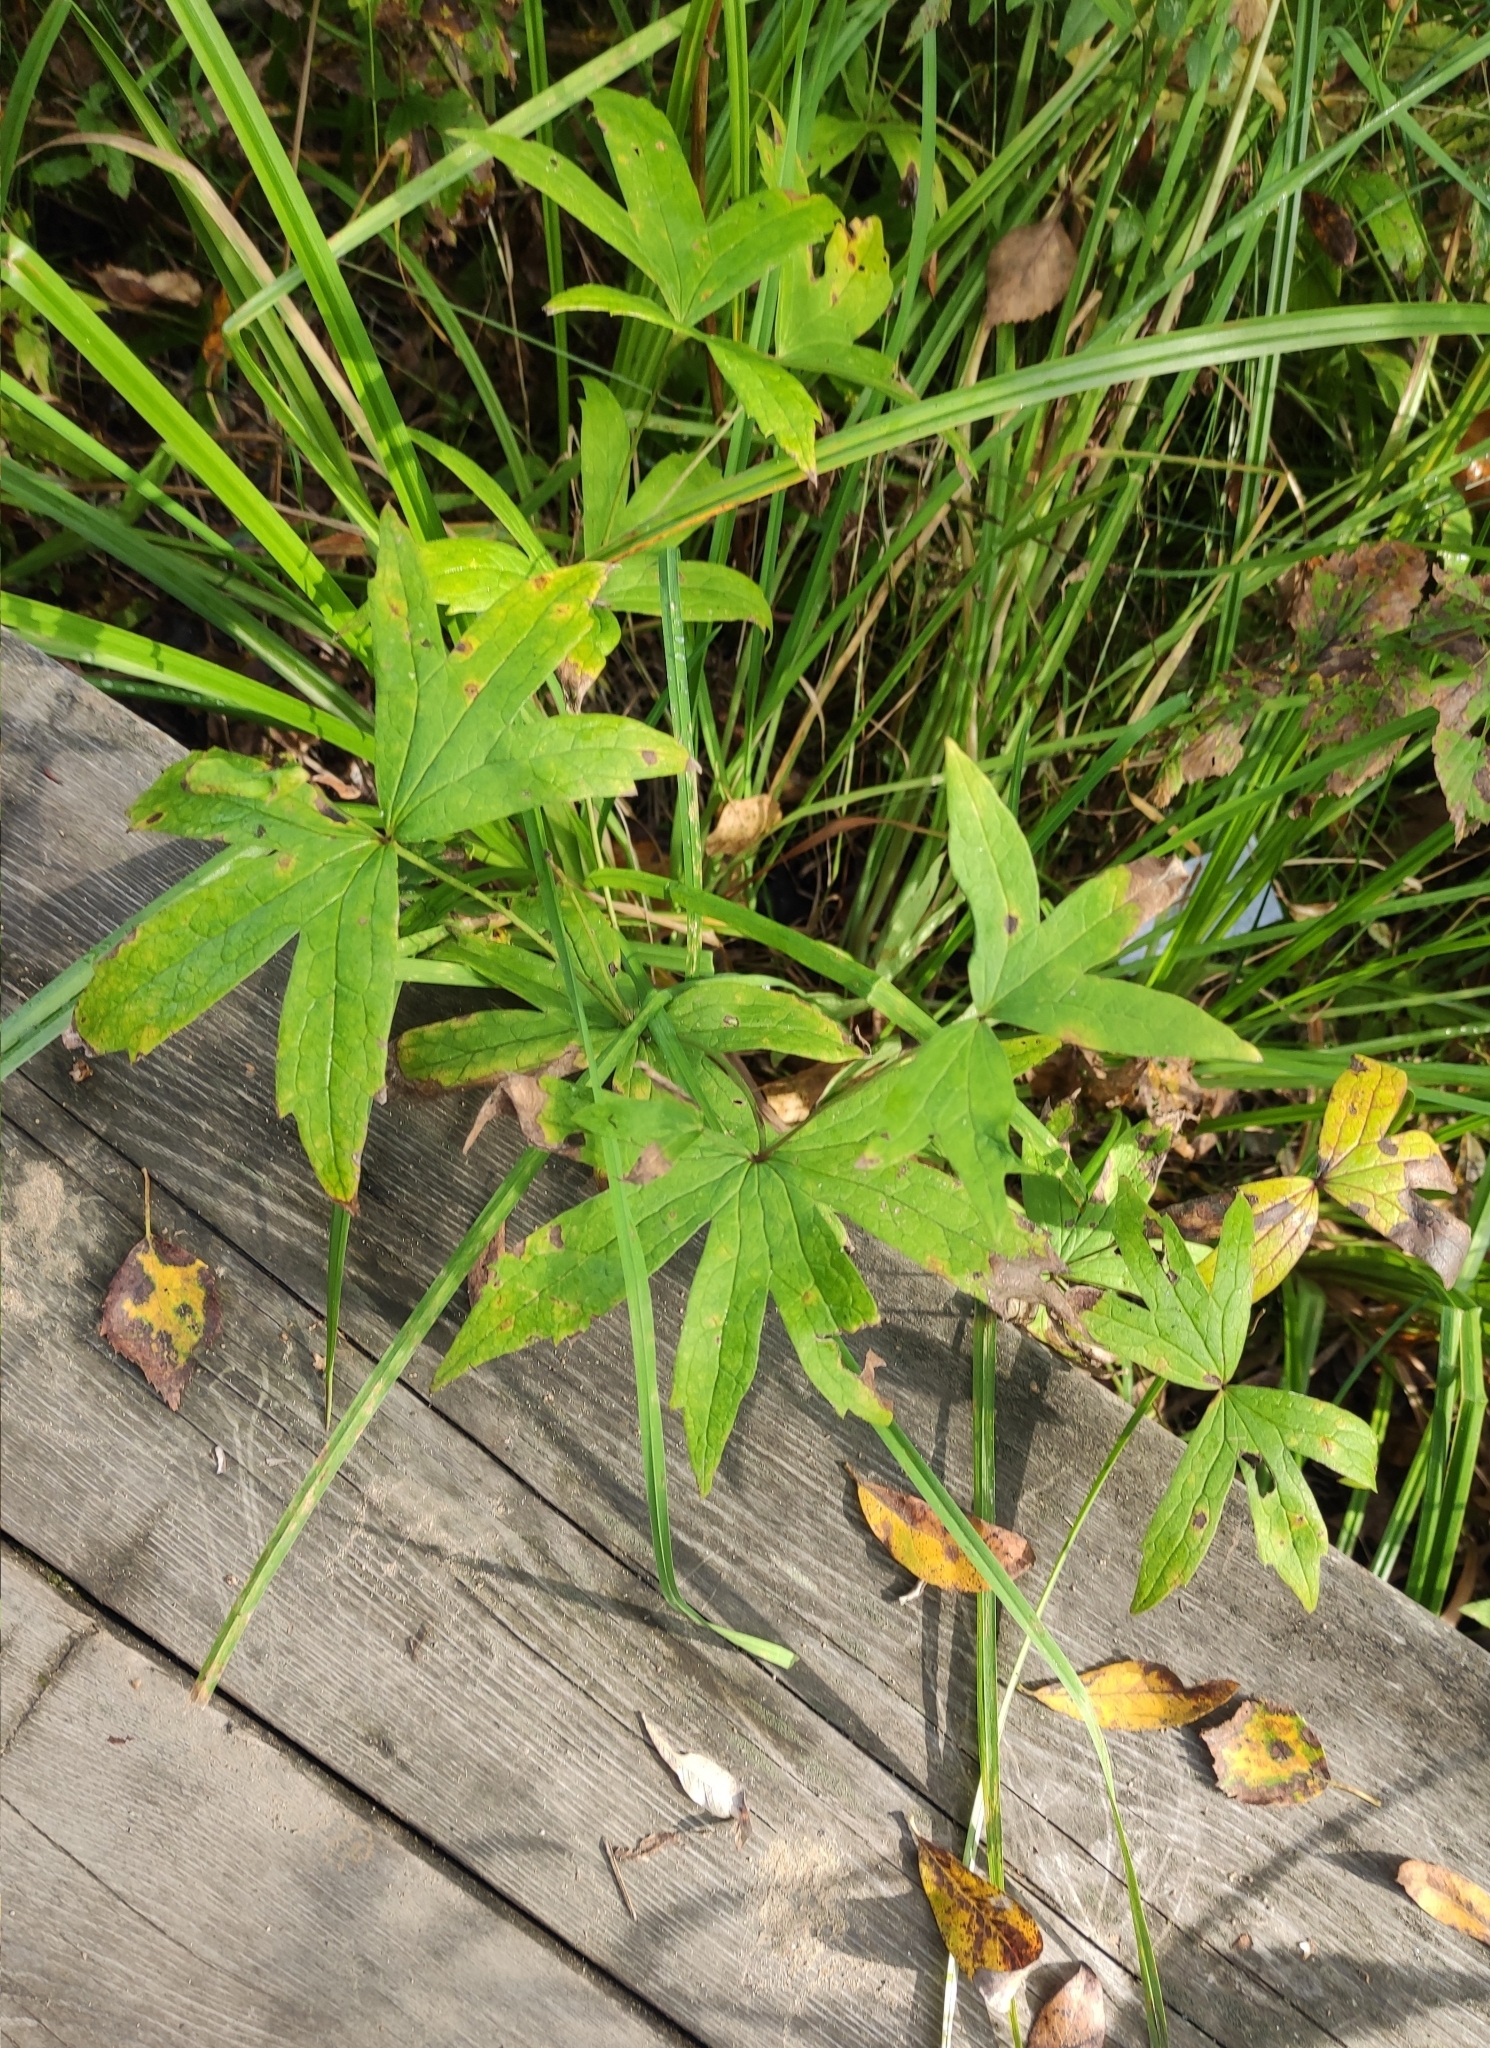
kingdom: Plantae
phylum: Tracheophyta
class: Magnoliopsida
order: Ranunculales
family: Ranunculaceae
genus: Anemonastrum
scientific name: Anemonastrum dichotomum
